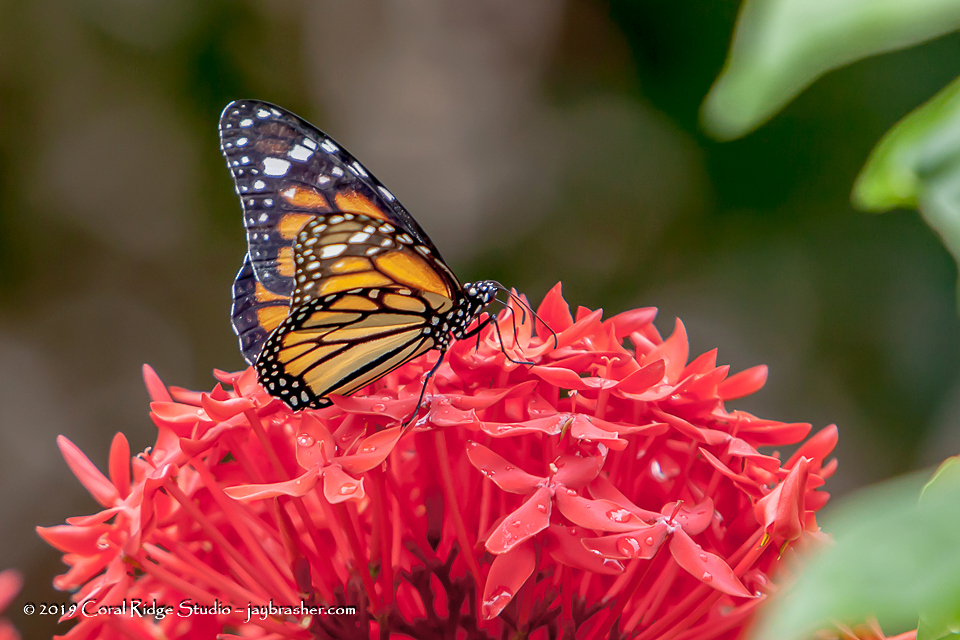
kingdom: Animalia
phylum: Arthropoda
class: Insecta
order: Lepidoptera
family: Nymphalidae
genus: Danaus
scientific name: Danaus plexippus
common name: Monarch
